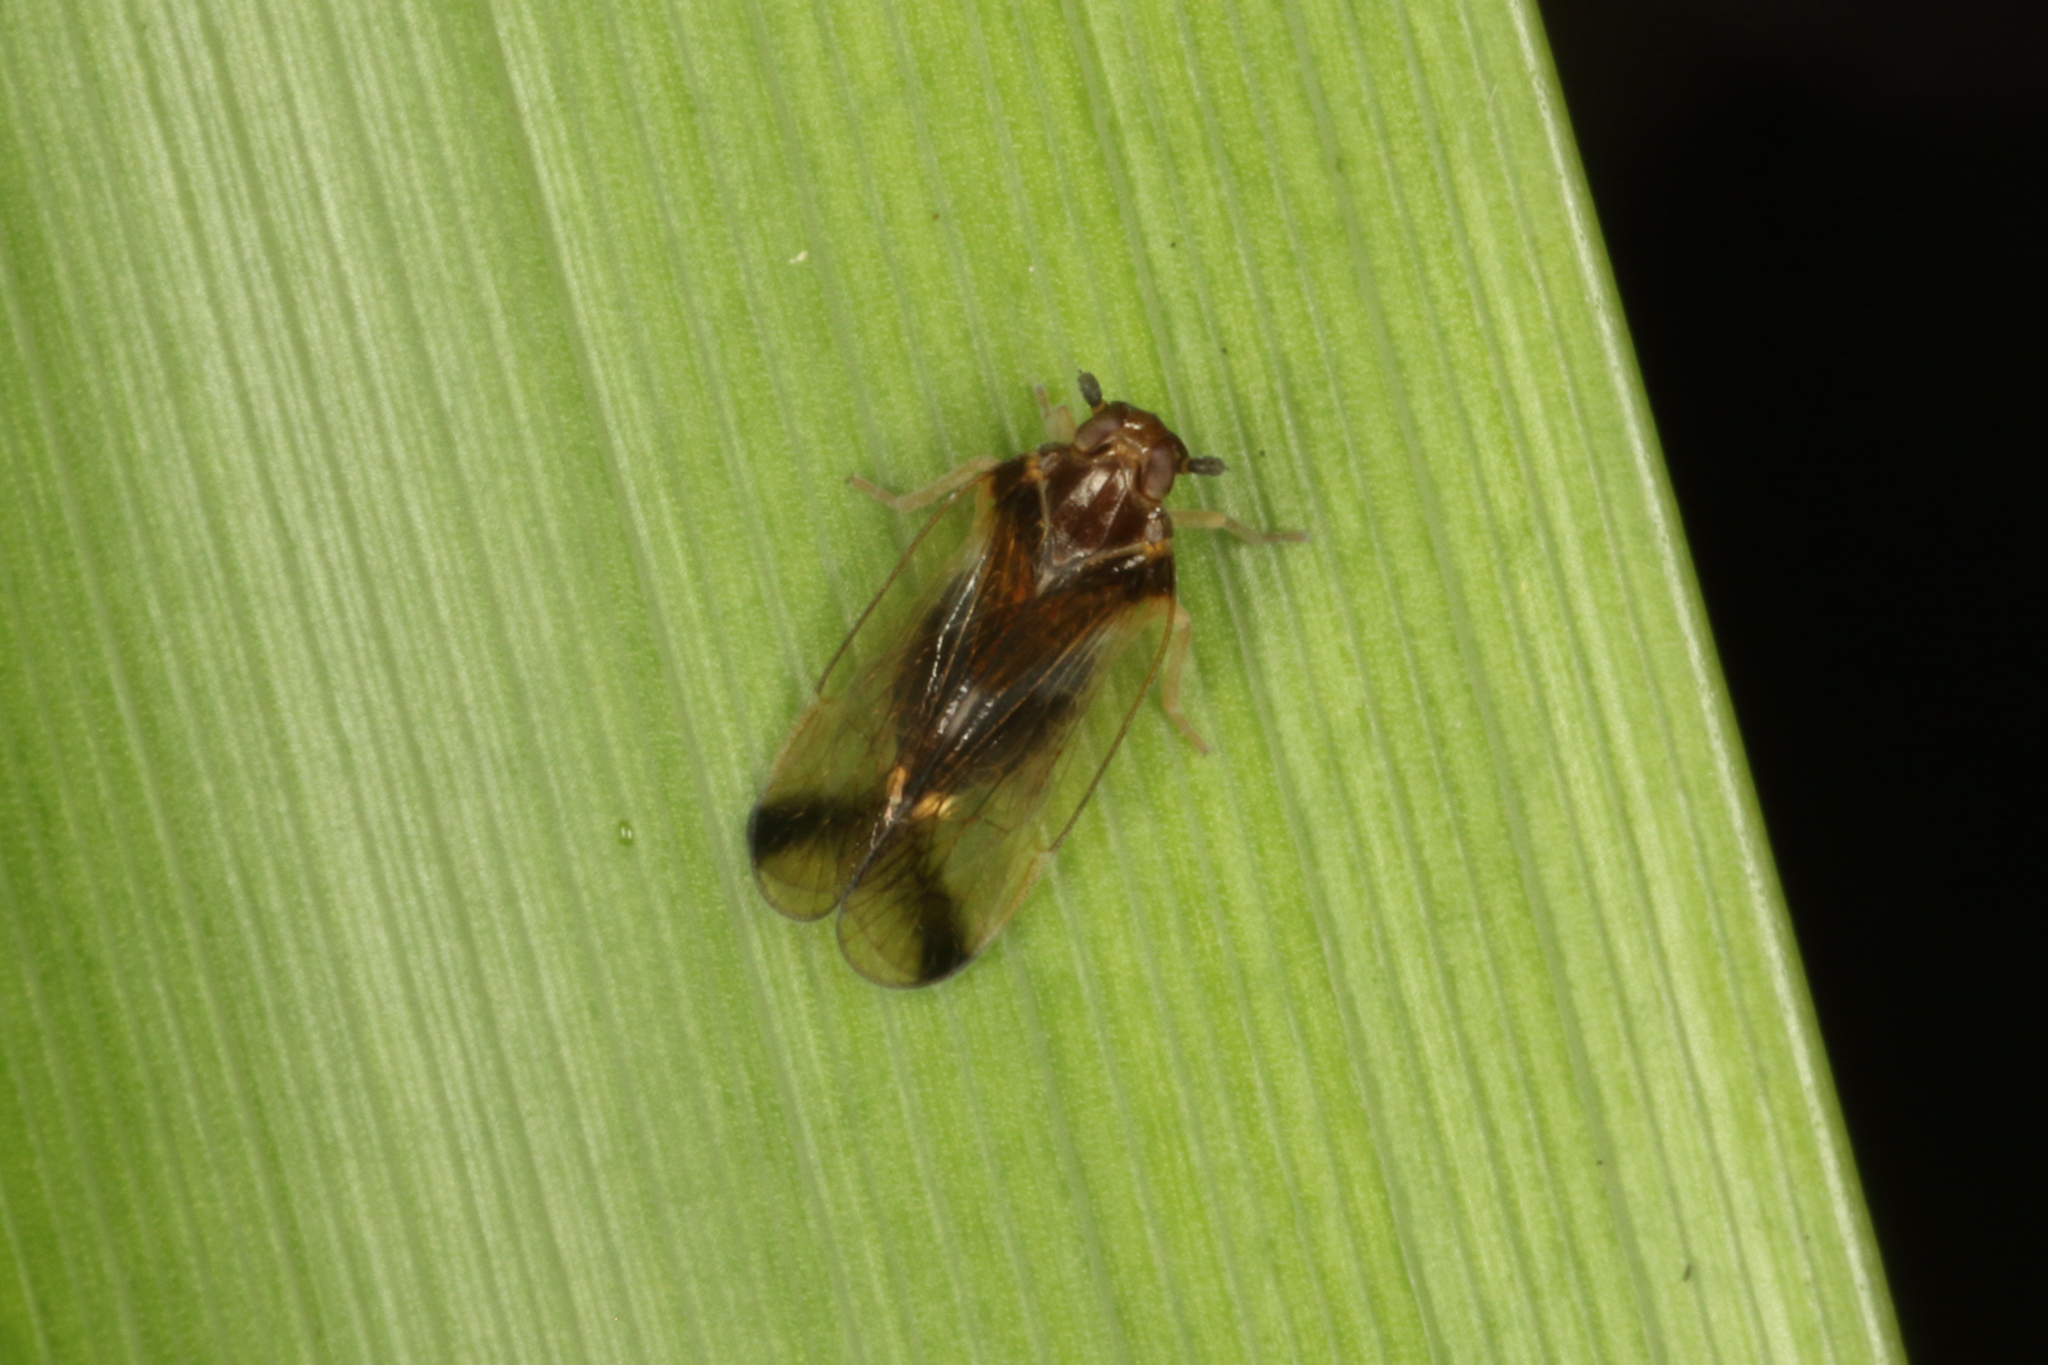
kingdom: Animalia
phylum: Arthropoda
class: Insecta
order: Hemiptera
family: Cixiidae
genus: Tiriteana
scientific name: Tiriteana clarkei
